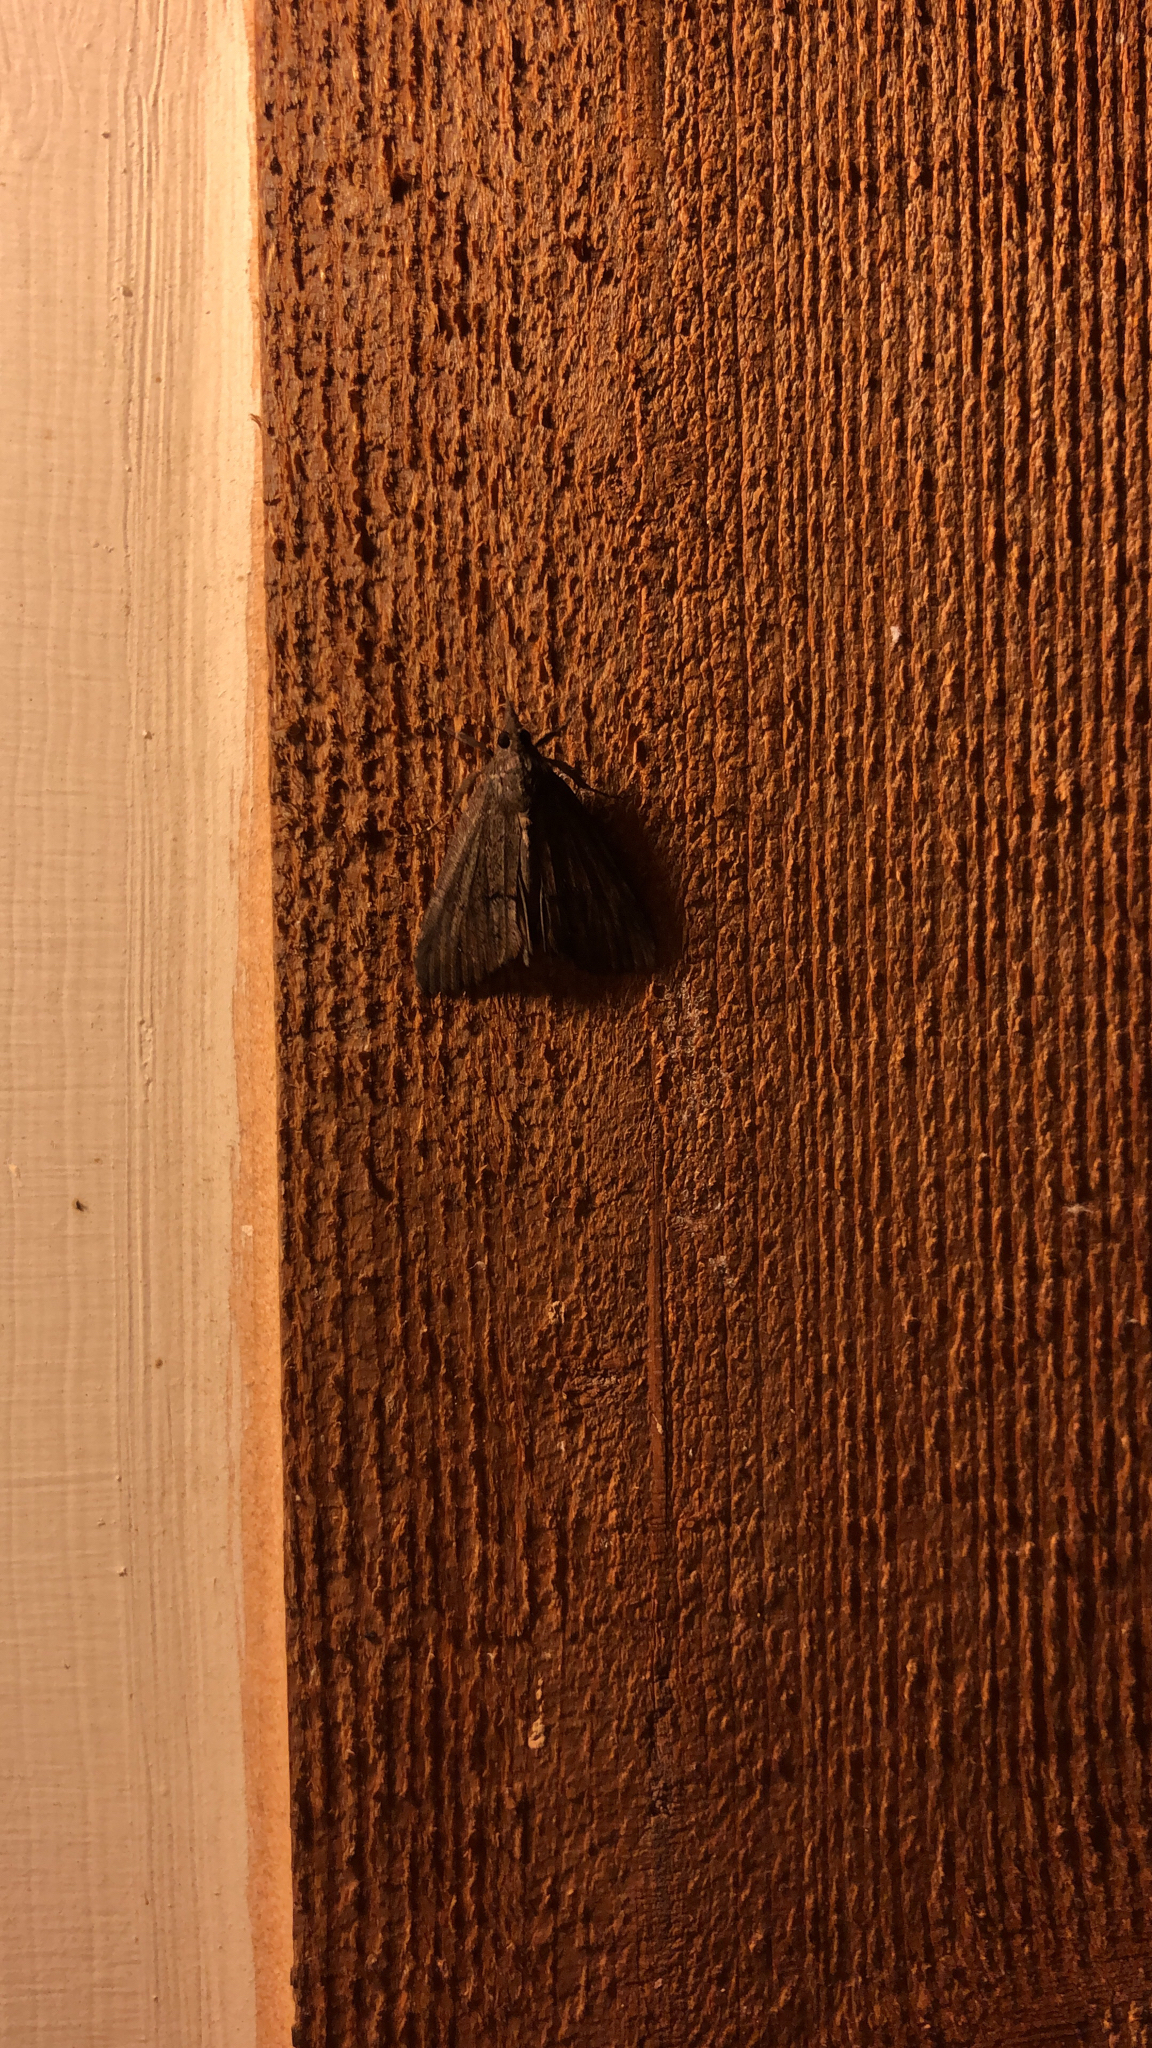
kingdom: Animalia
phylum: Arthropoda
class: Insecta
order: Lepidoptera
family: Erebidae
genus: Hypena
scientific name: Hypena scabra
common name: Green cloverworm
